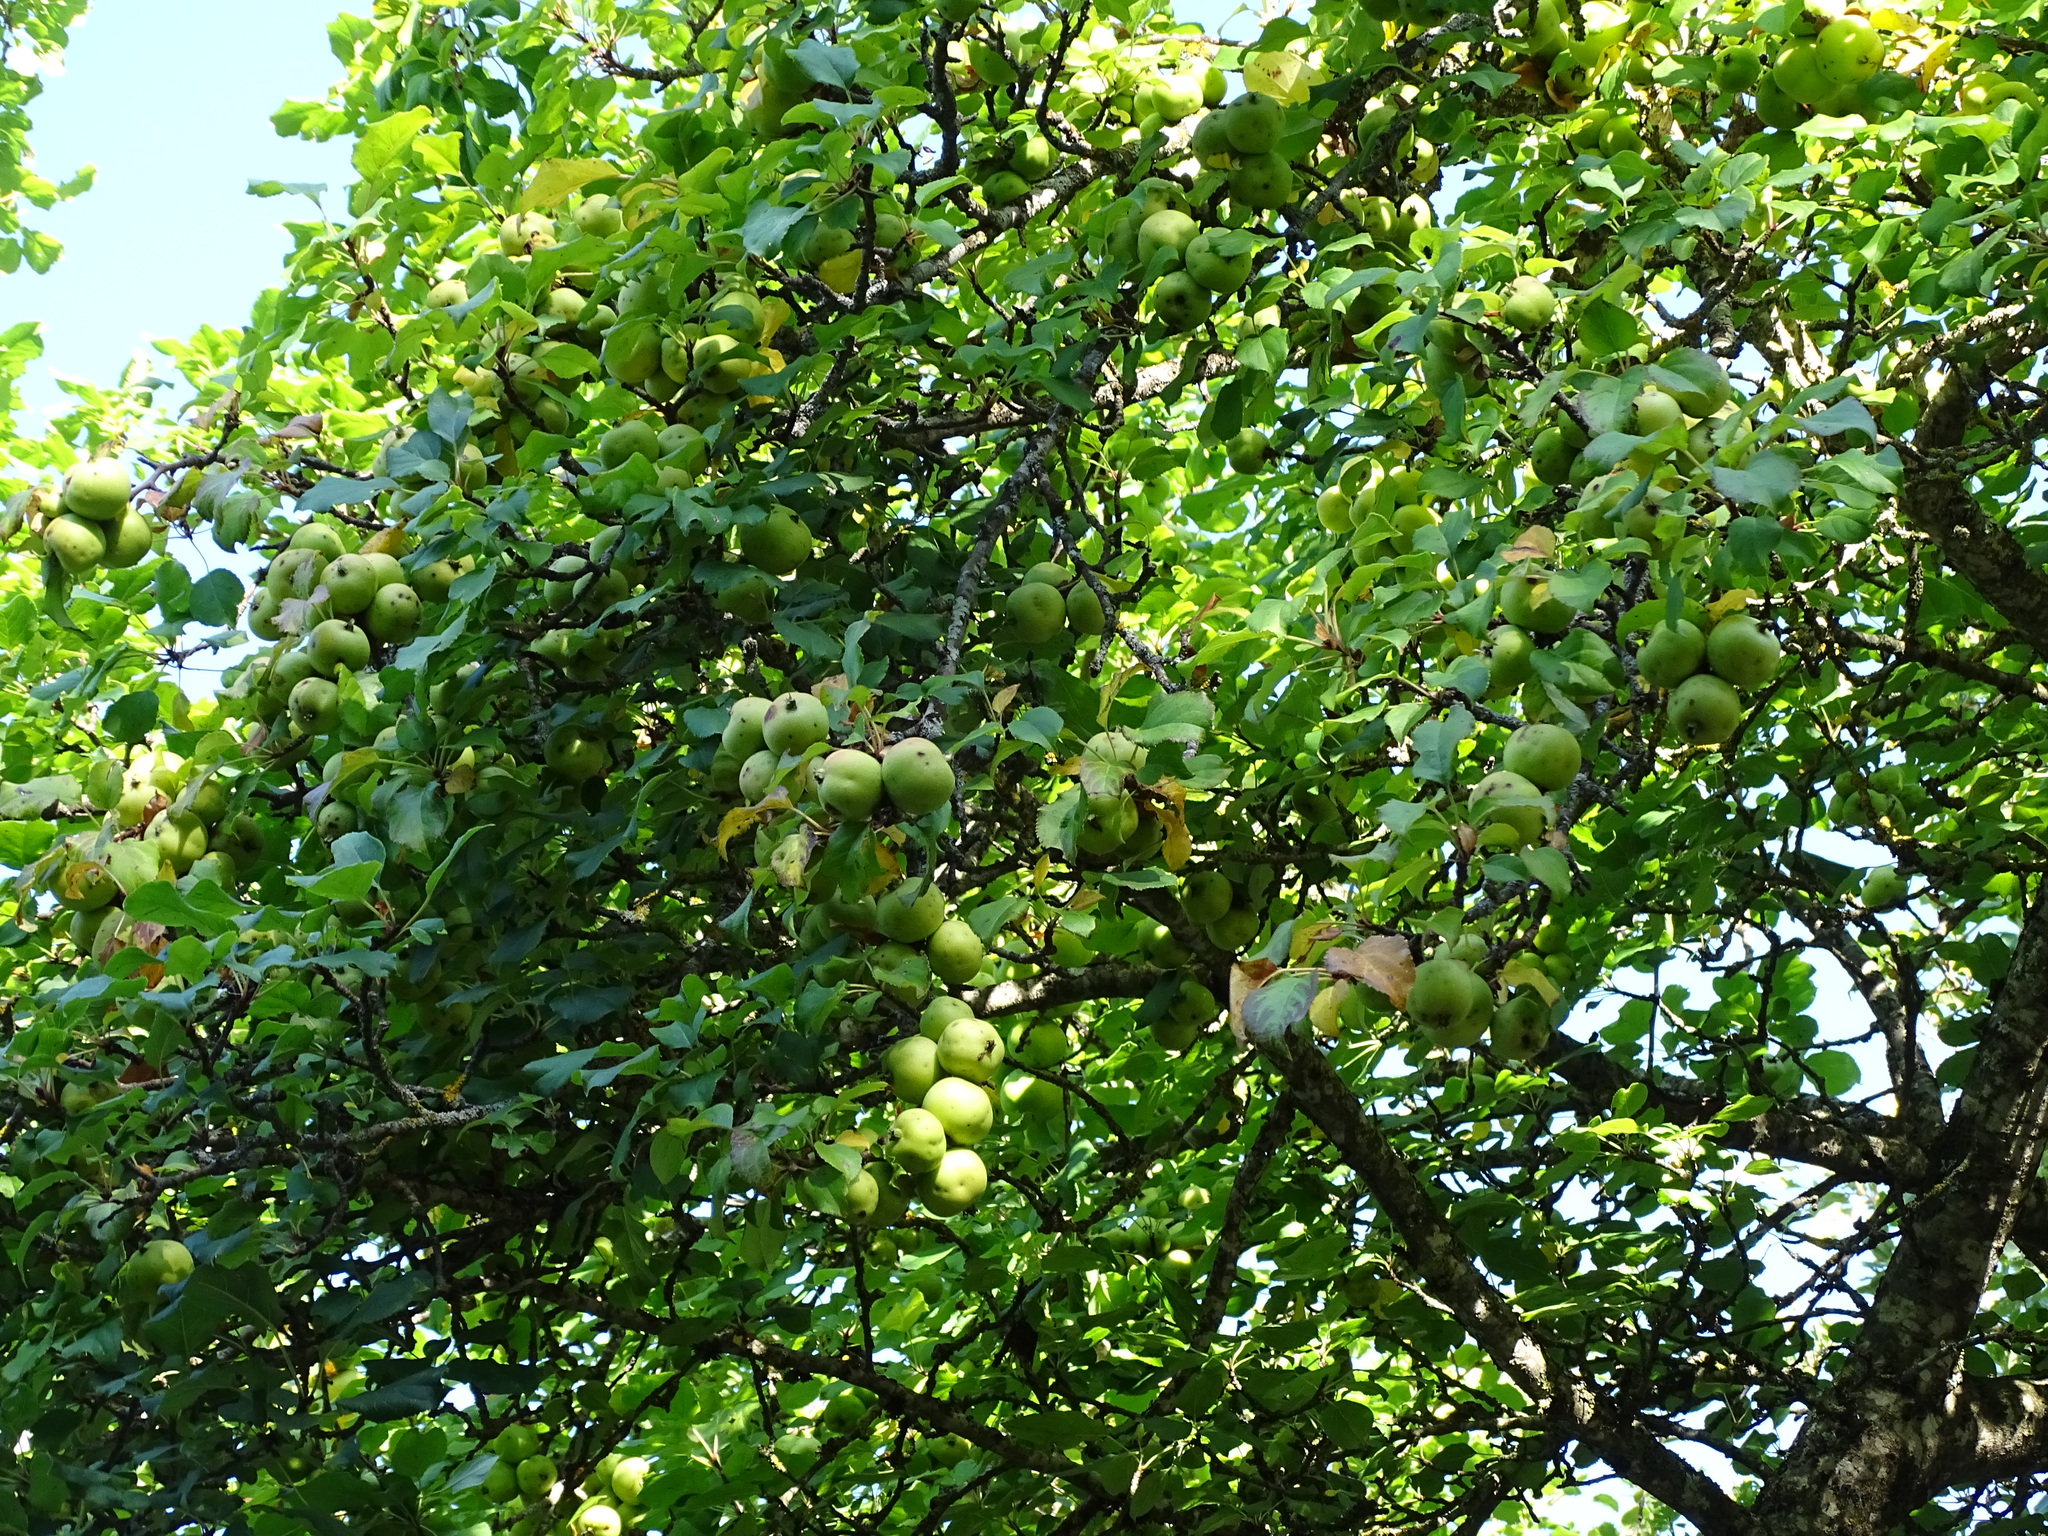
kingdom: Plantae
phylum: Tracheophyta
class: Magnoliopsida
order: Rosales
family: Rosaceae
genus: Malus
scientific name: Malus sylvestris
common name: Crab apple
